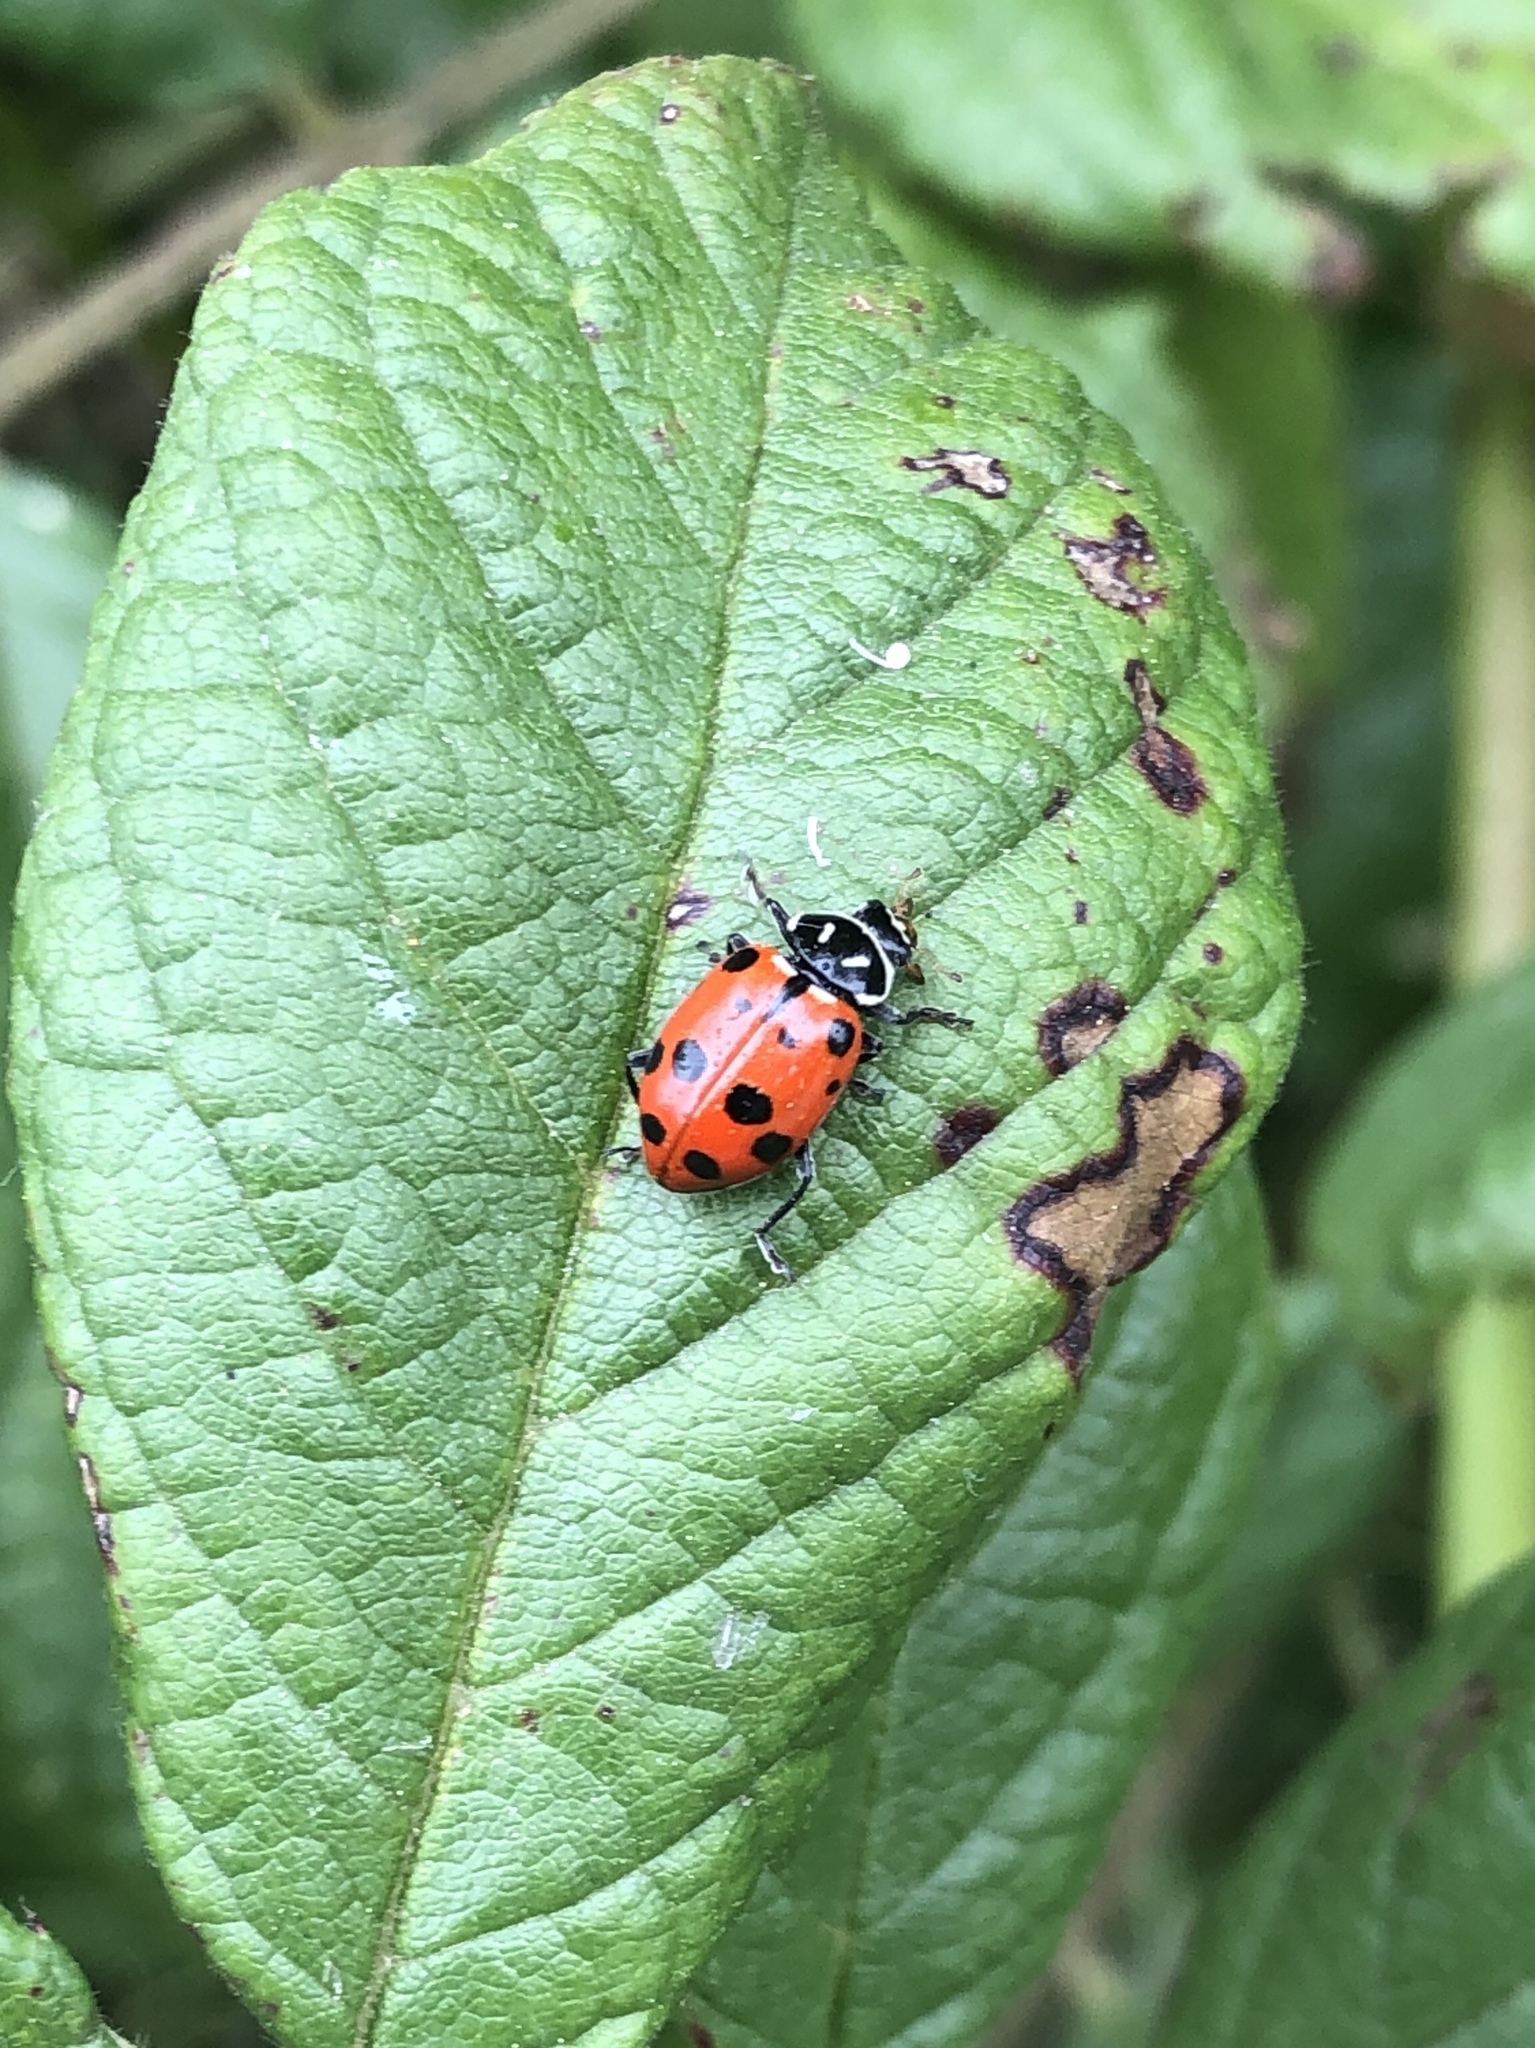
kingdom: Animalia
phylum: Arthropoda
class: Insecta
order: Coleoptera
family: Coccinellidae
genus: Hippodamia
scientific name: Hippodamia convergens
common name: Convergent lady beetle
